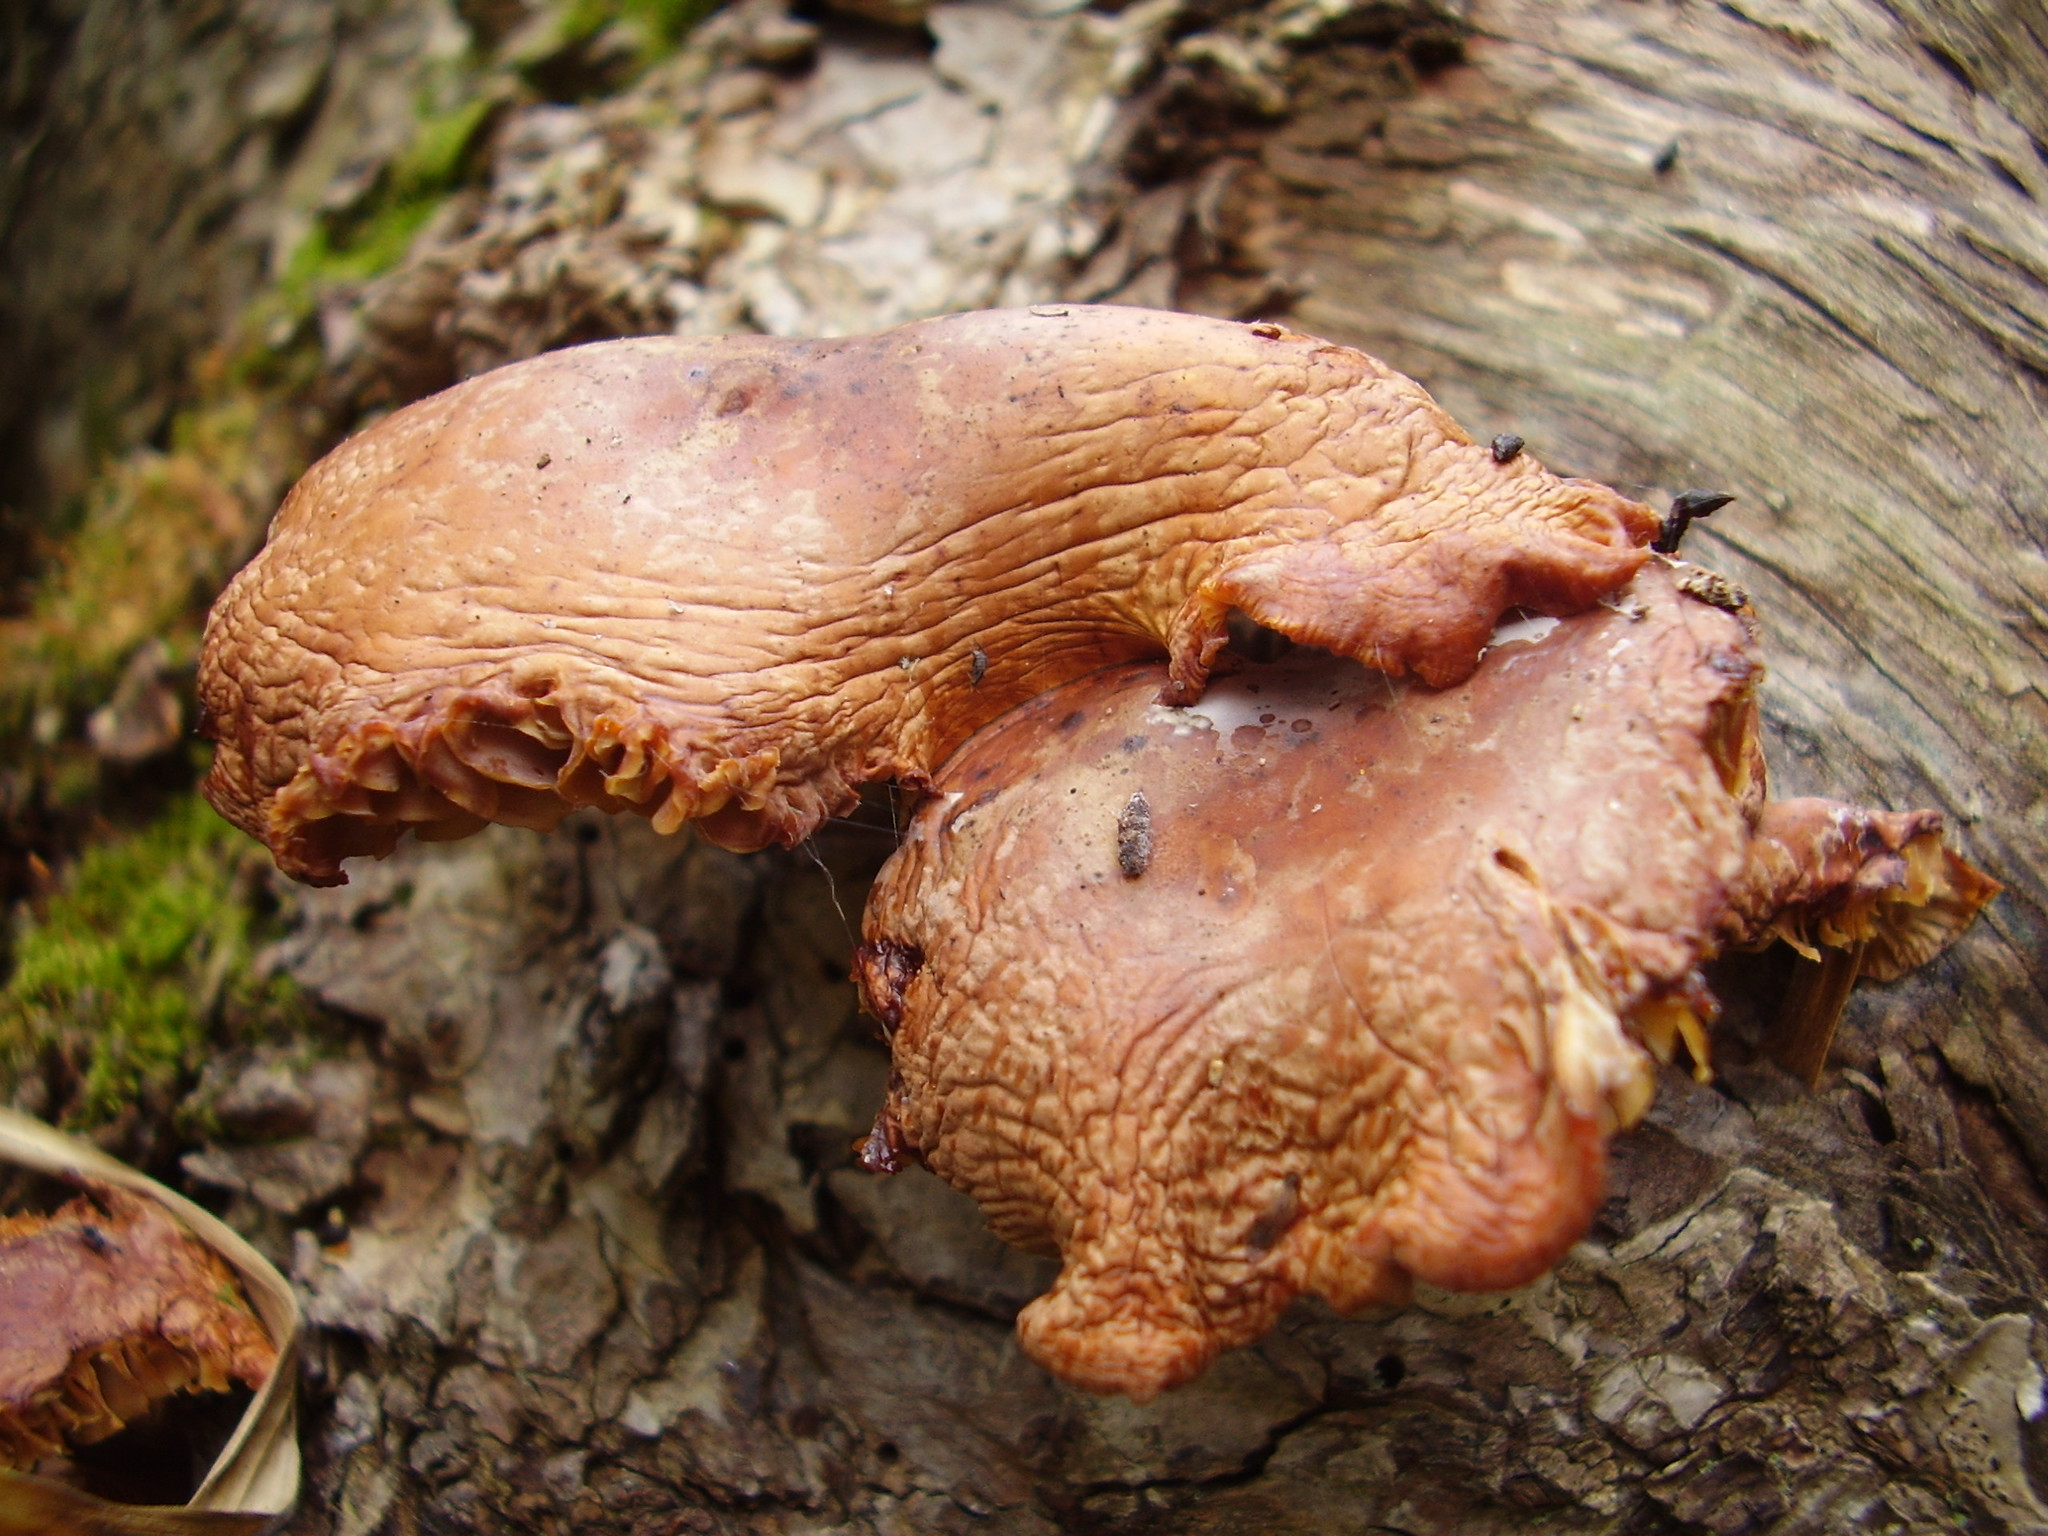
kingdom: Fungi
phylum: Basidiomycota
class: Agaricomycetes
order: Agaricales
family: Fistulinaceae
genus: Fistulina
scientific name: Fistulina hepatica
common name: Beef-steak fungus
